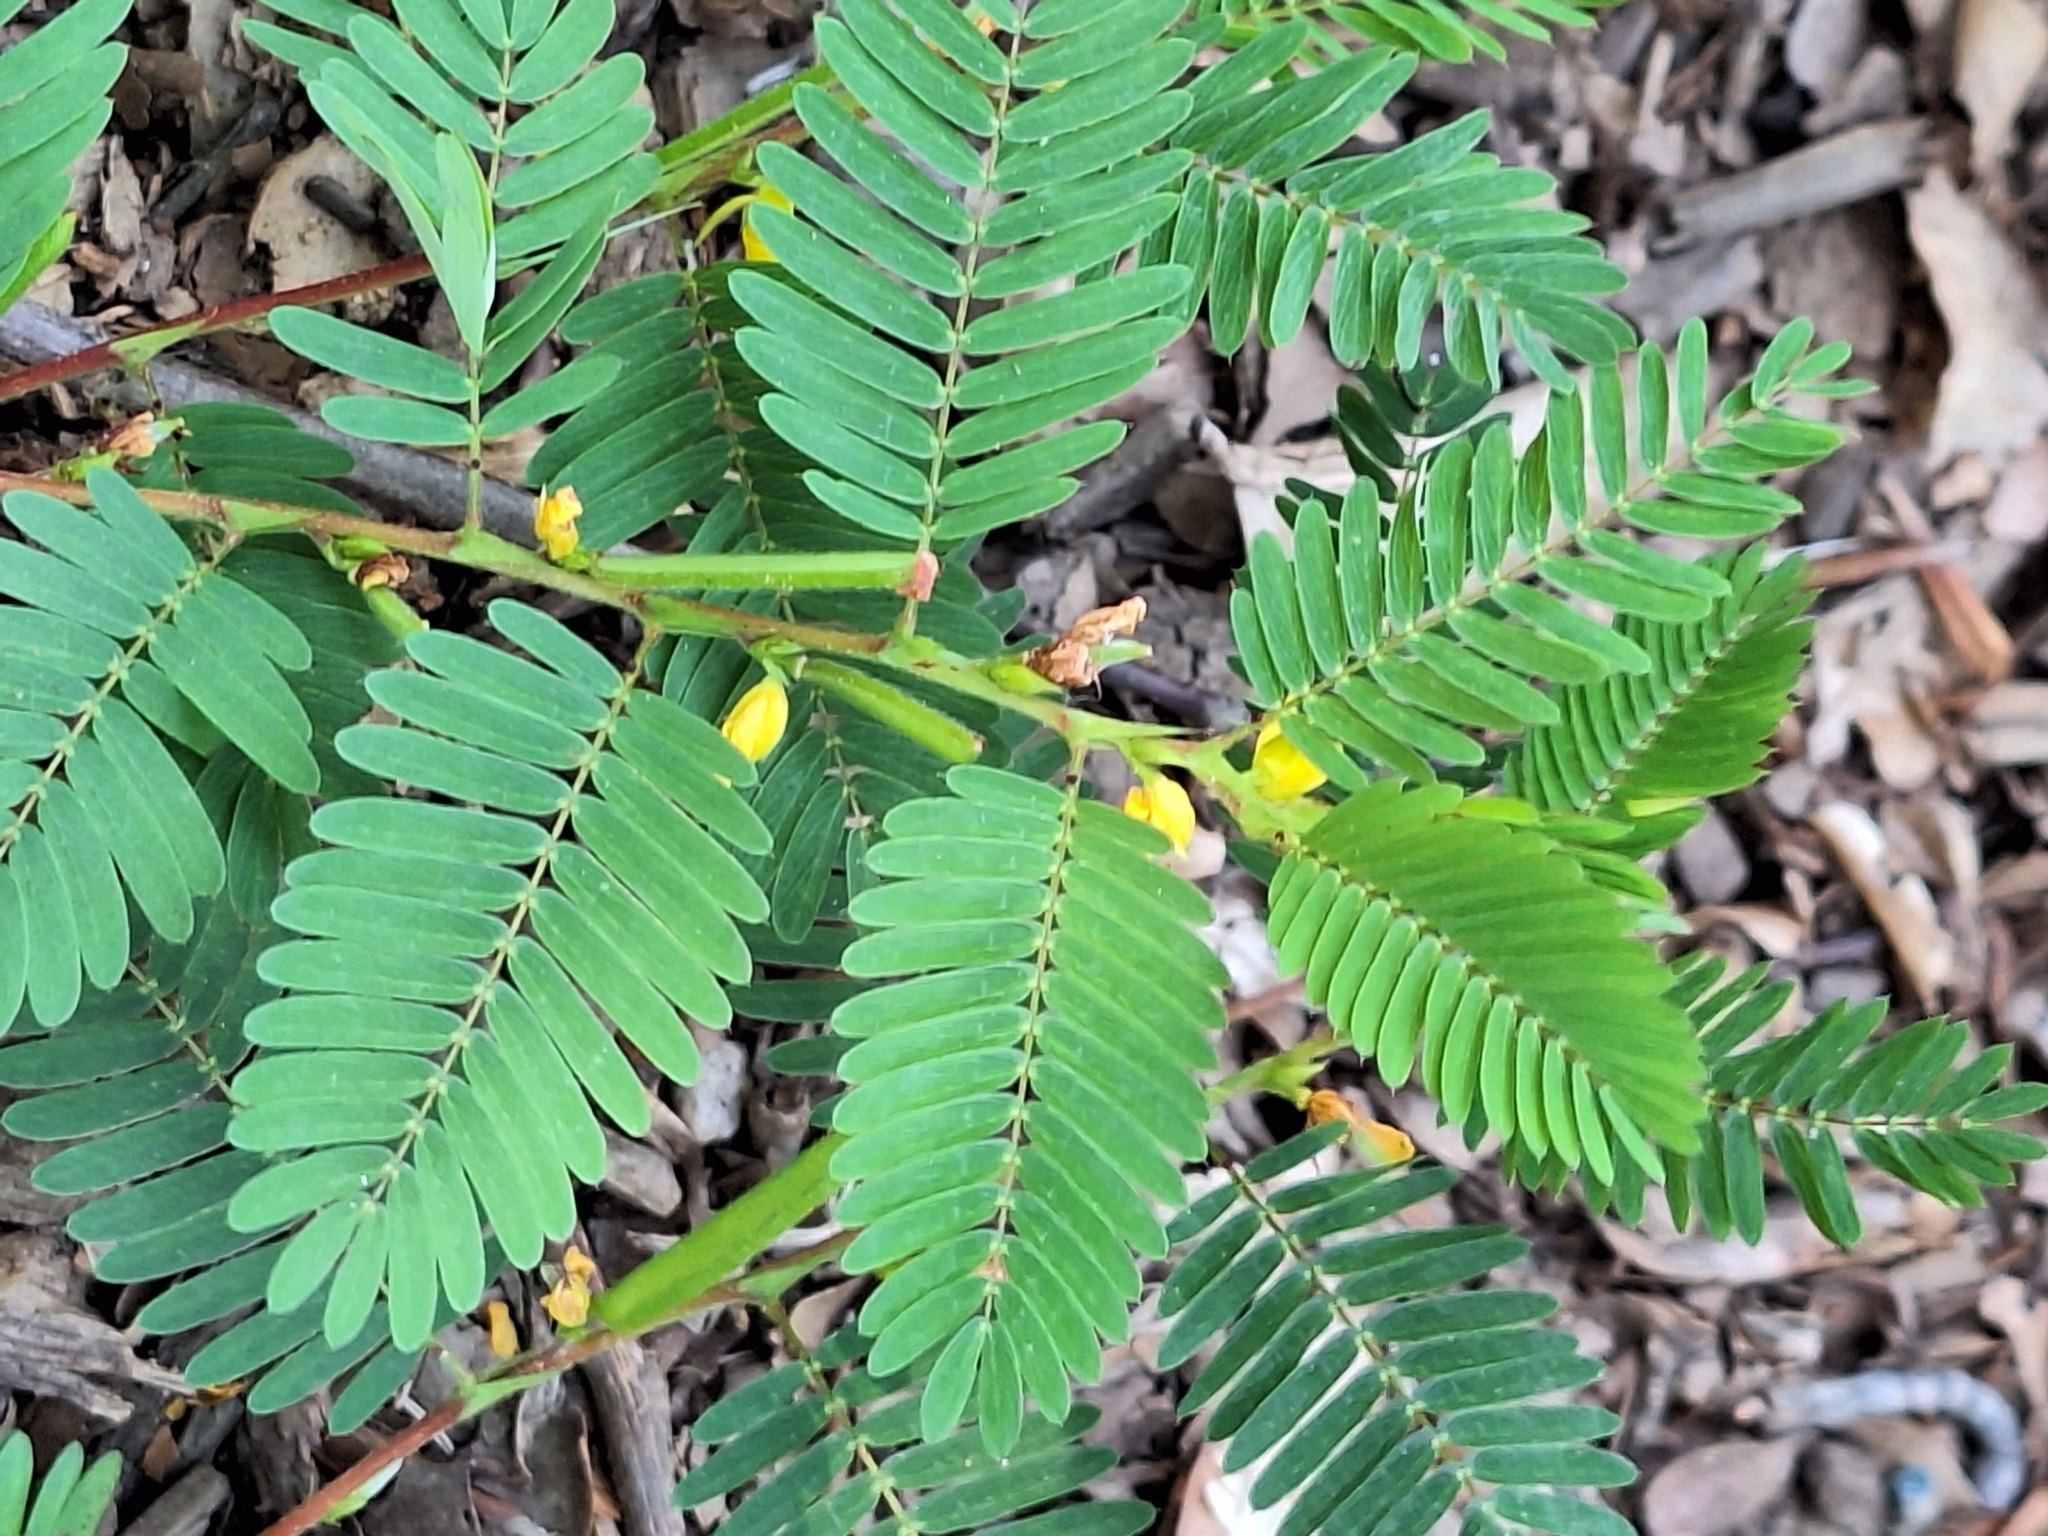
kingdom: Plantae
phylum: Tracheophyta
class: Magnoliopsida
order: Fabales
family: Fabaceae
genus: Chamaecrista
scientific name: Chamaecrista nictitans
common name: Sensitive cassia
